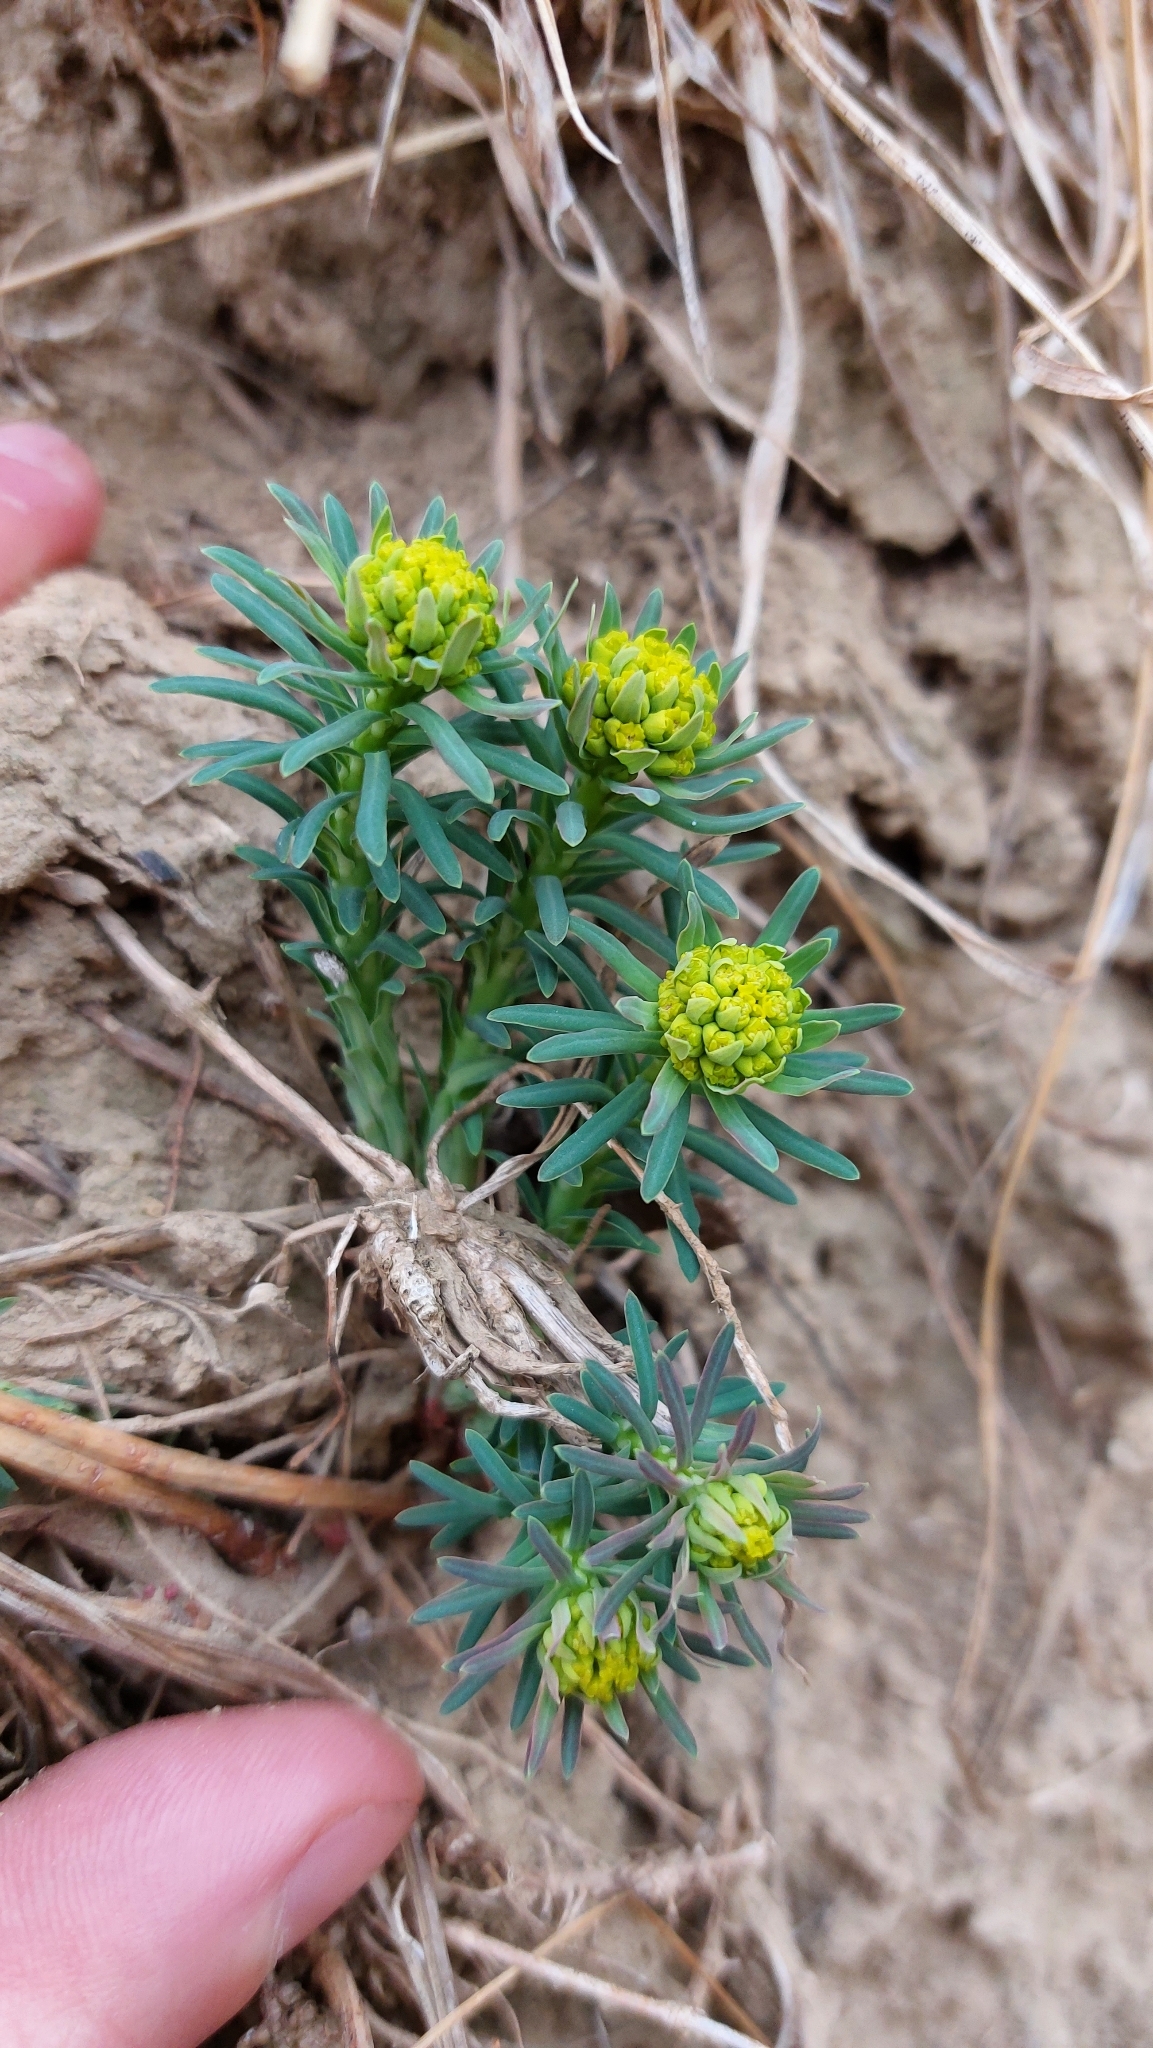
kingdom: Plantae
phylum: Tracheophyta
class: Magnoliopsida
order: Malpighiales
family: Euphorbiaceae
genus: Euphorbia
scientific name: Euphorbia cyparissias
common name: Cypress spurge
